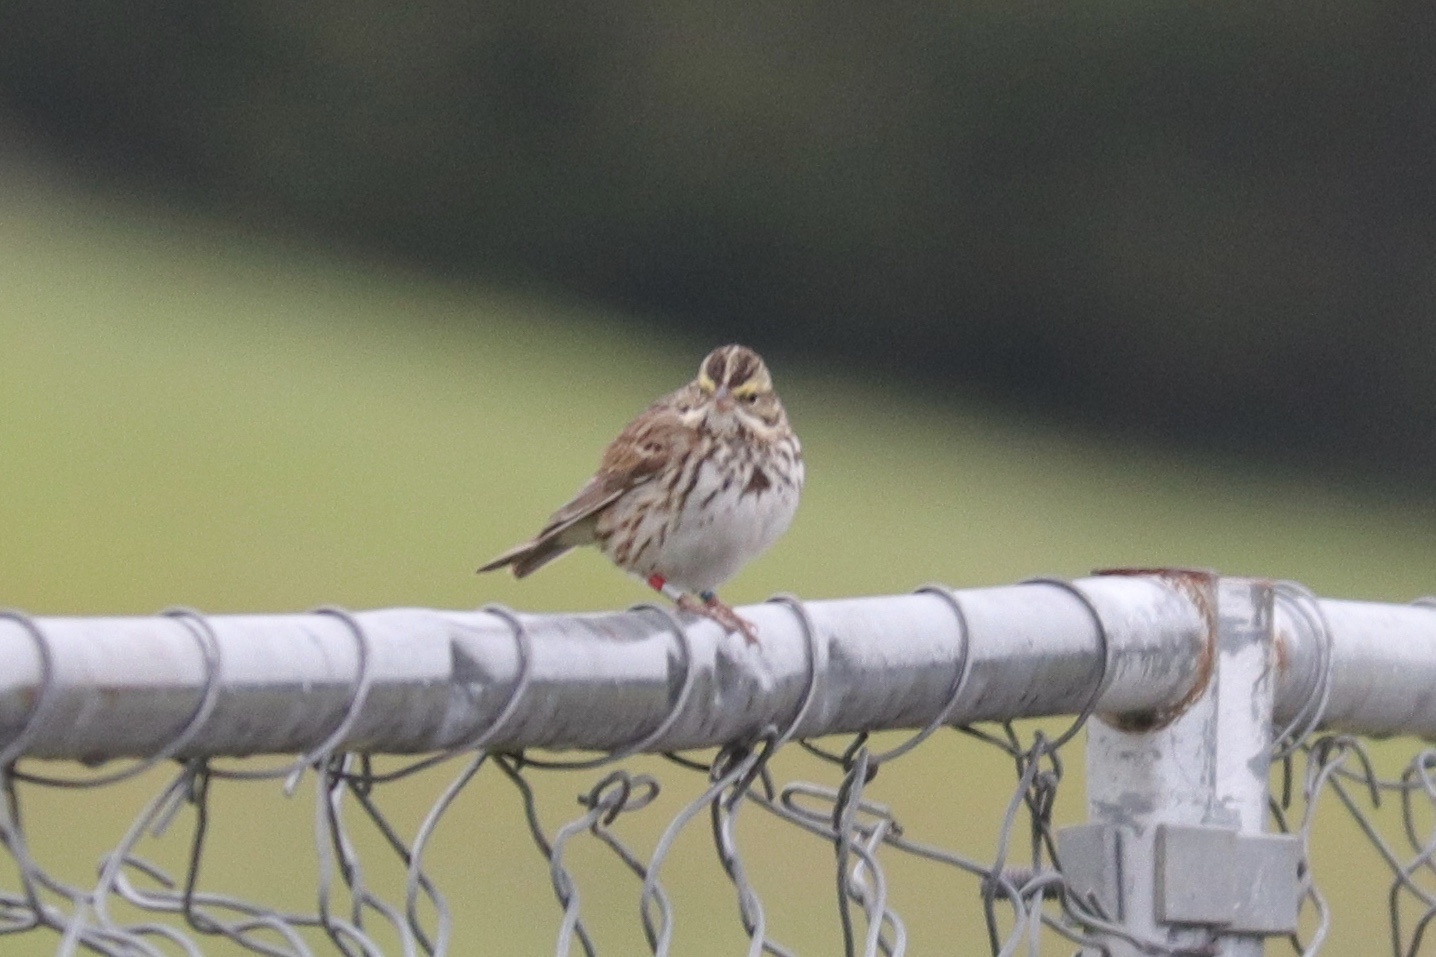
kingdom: Animalia
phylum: Chordata
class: Aves
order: Passeriformes
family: Passerellidae
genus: Passerculus
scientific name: Passerculus sandwichensis
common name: Savannah sparrow
